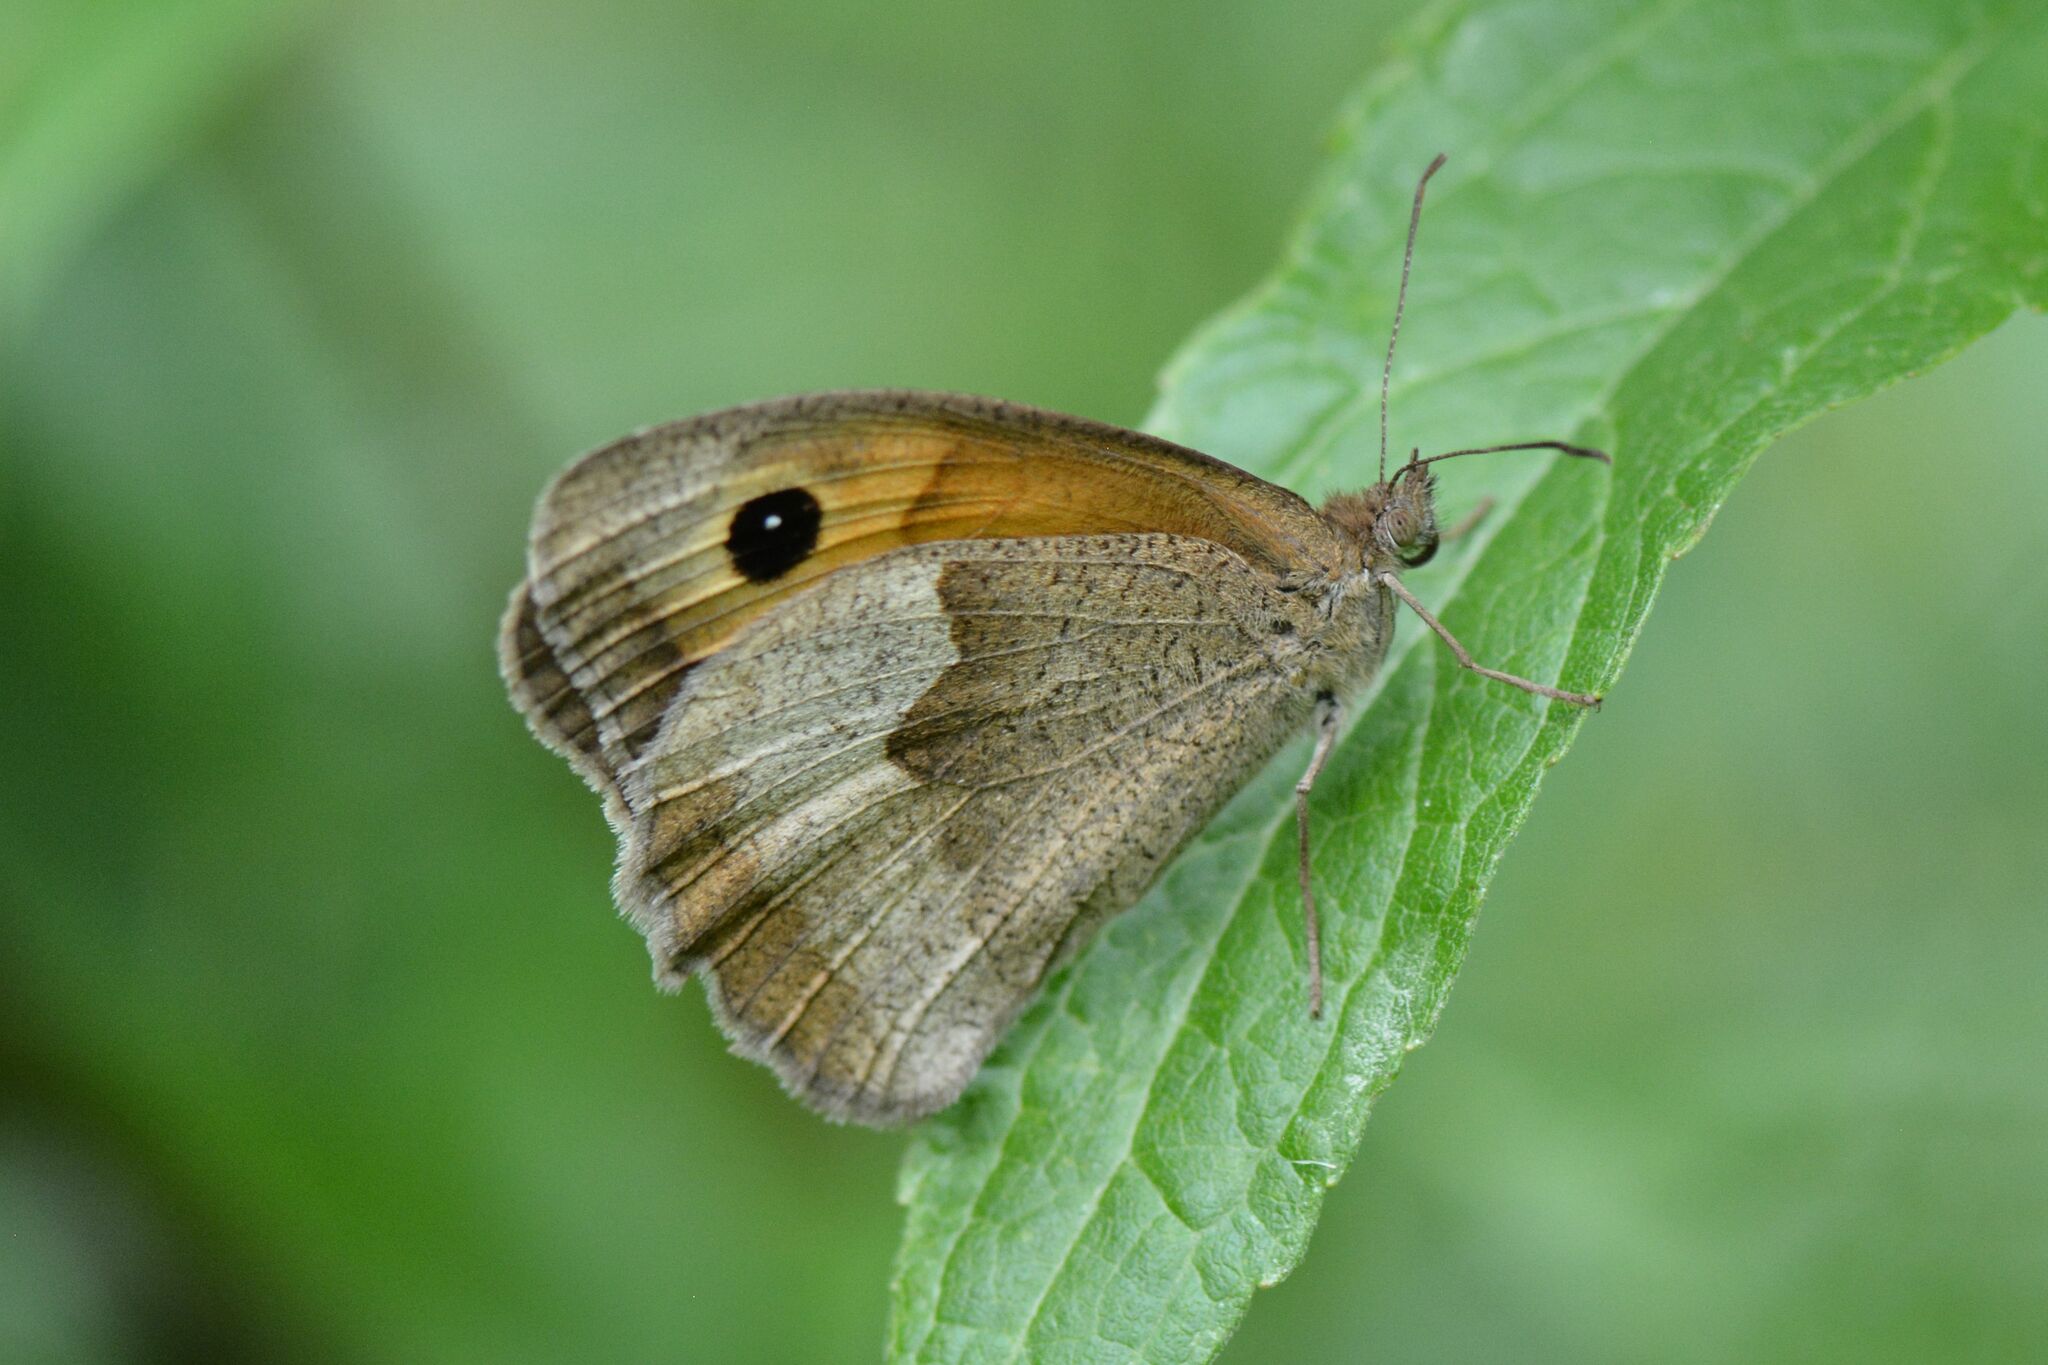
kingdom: Animalia
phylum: Arthropoda
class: Insecta
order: Lepidoptera
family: Nymphalidae
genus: Maniola
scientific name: Maniola jurtina
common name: Meadow brown
